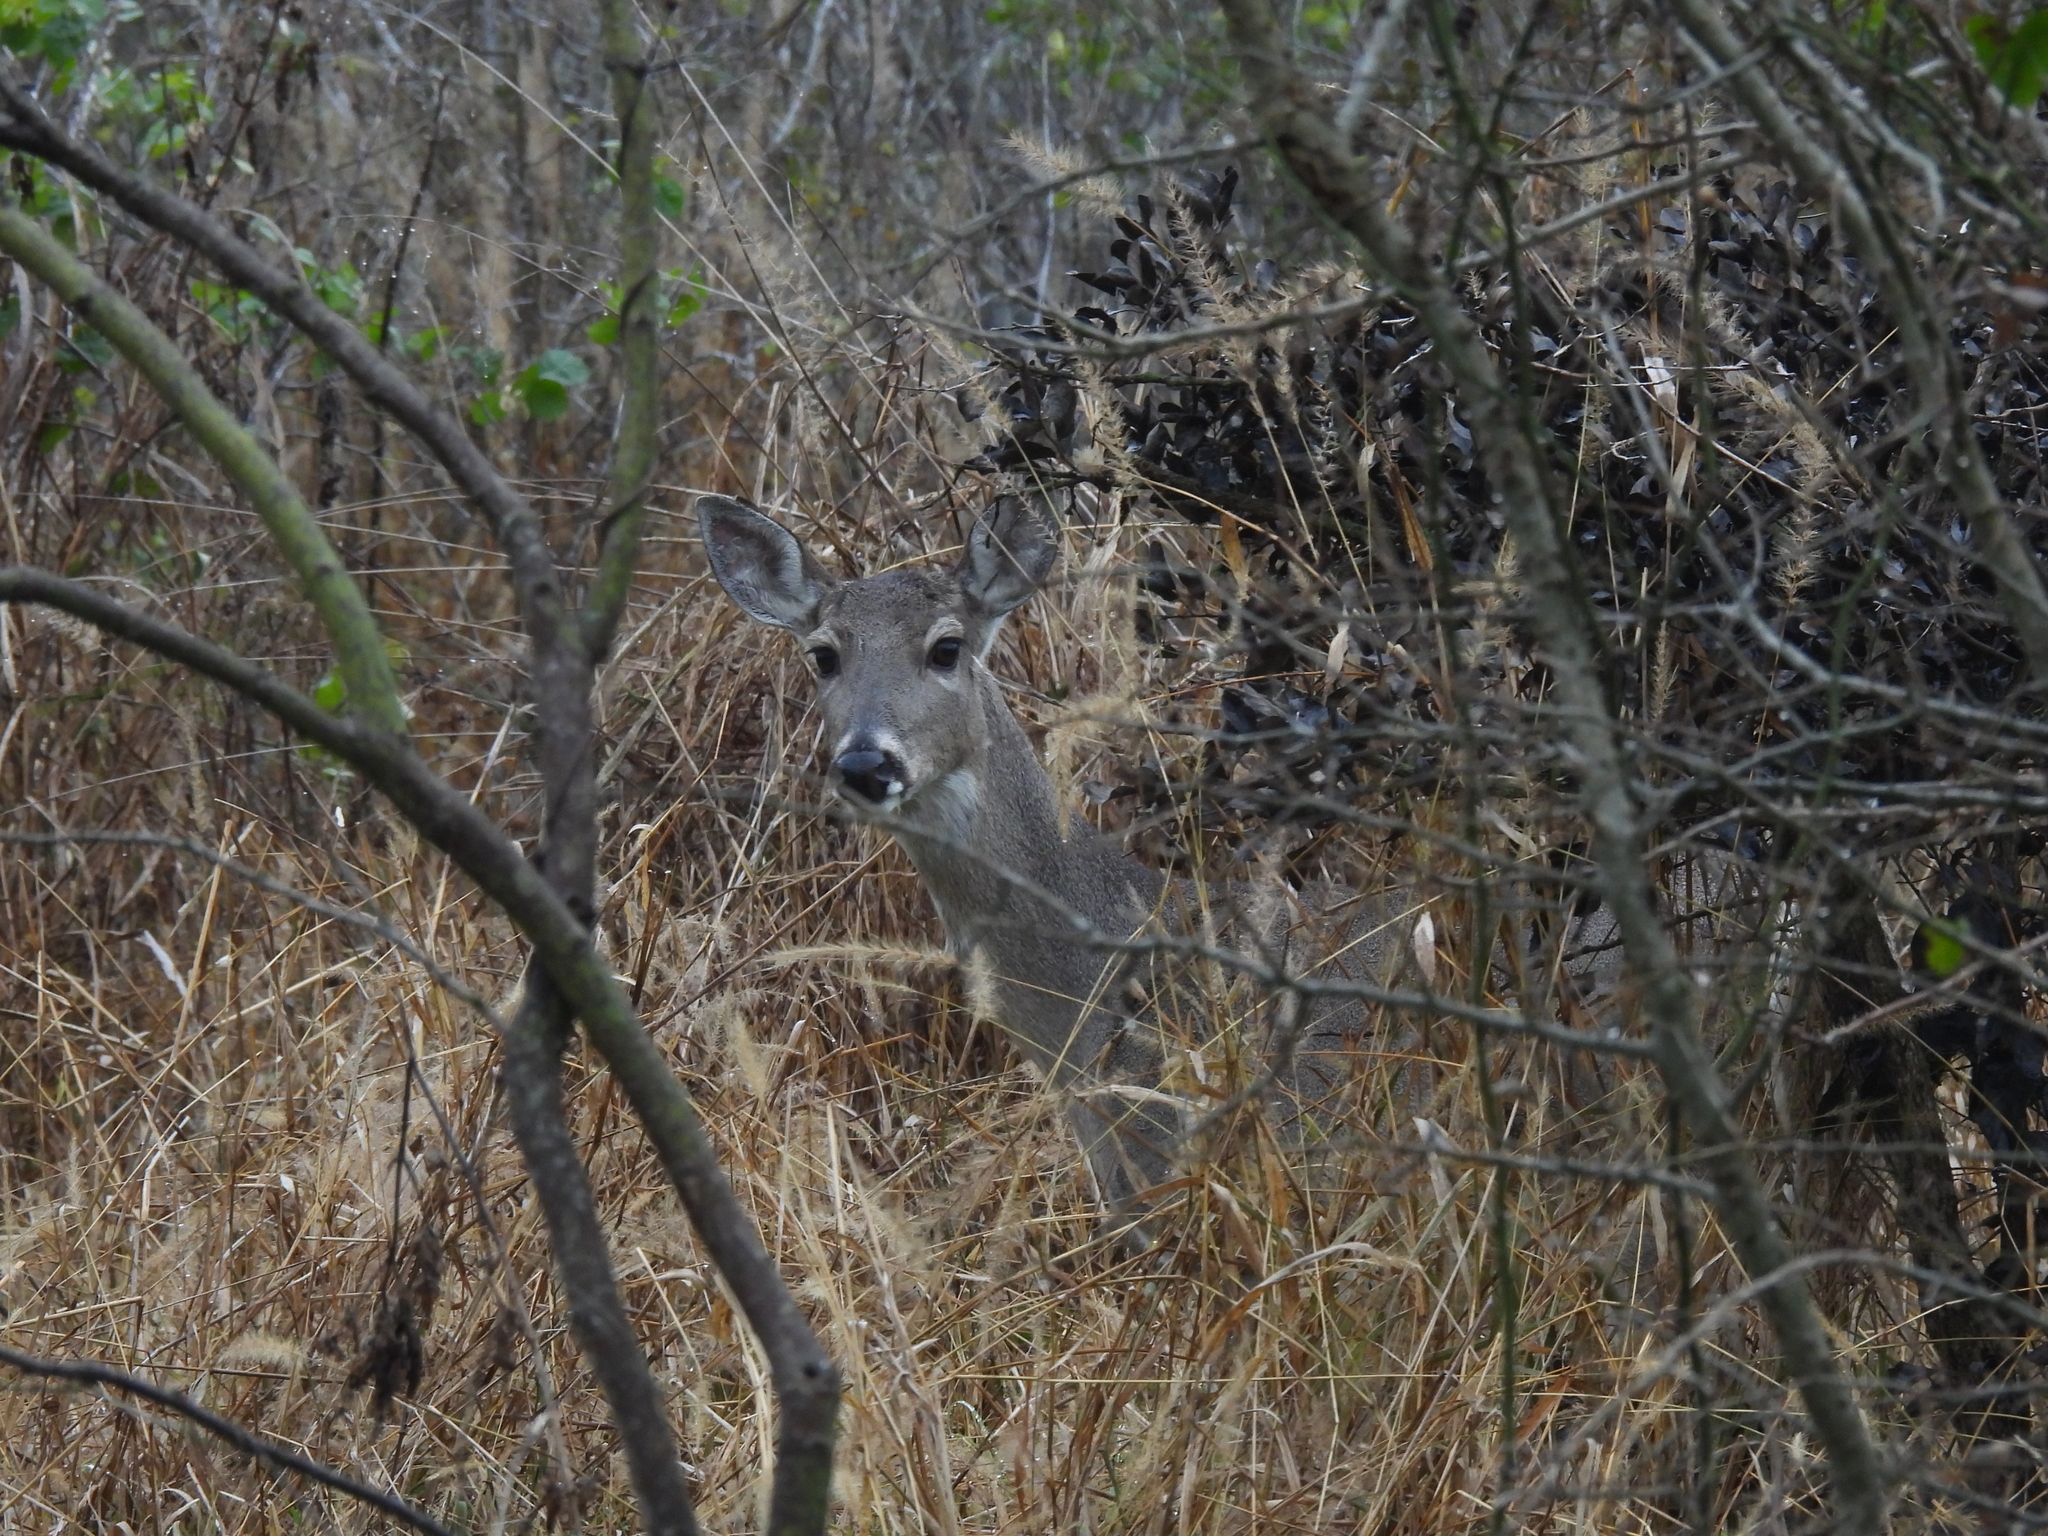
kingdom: Animalia
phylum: Chordata
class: Mammalia
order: Artiodactyla
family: Cervidae
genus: Odocoileus
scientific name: Odocoileus virginianus
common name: White-tailed deer
